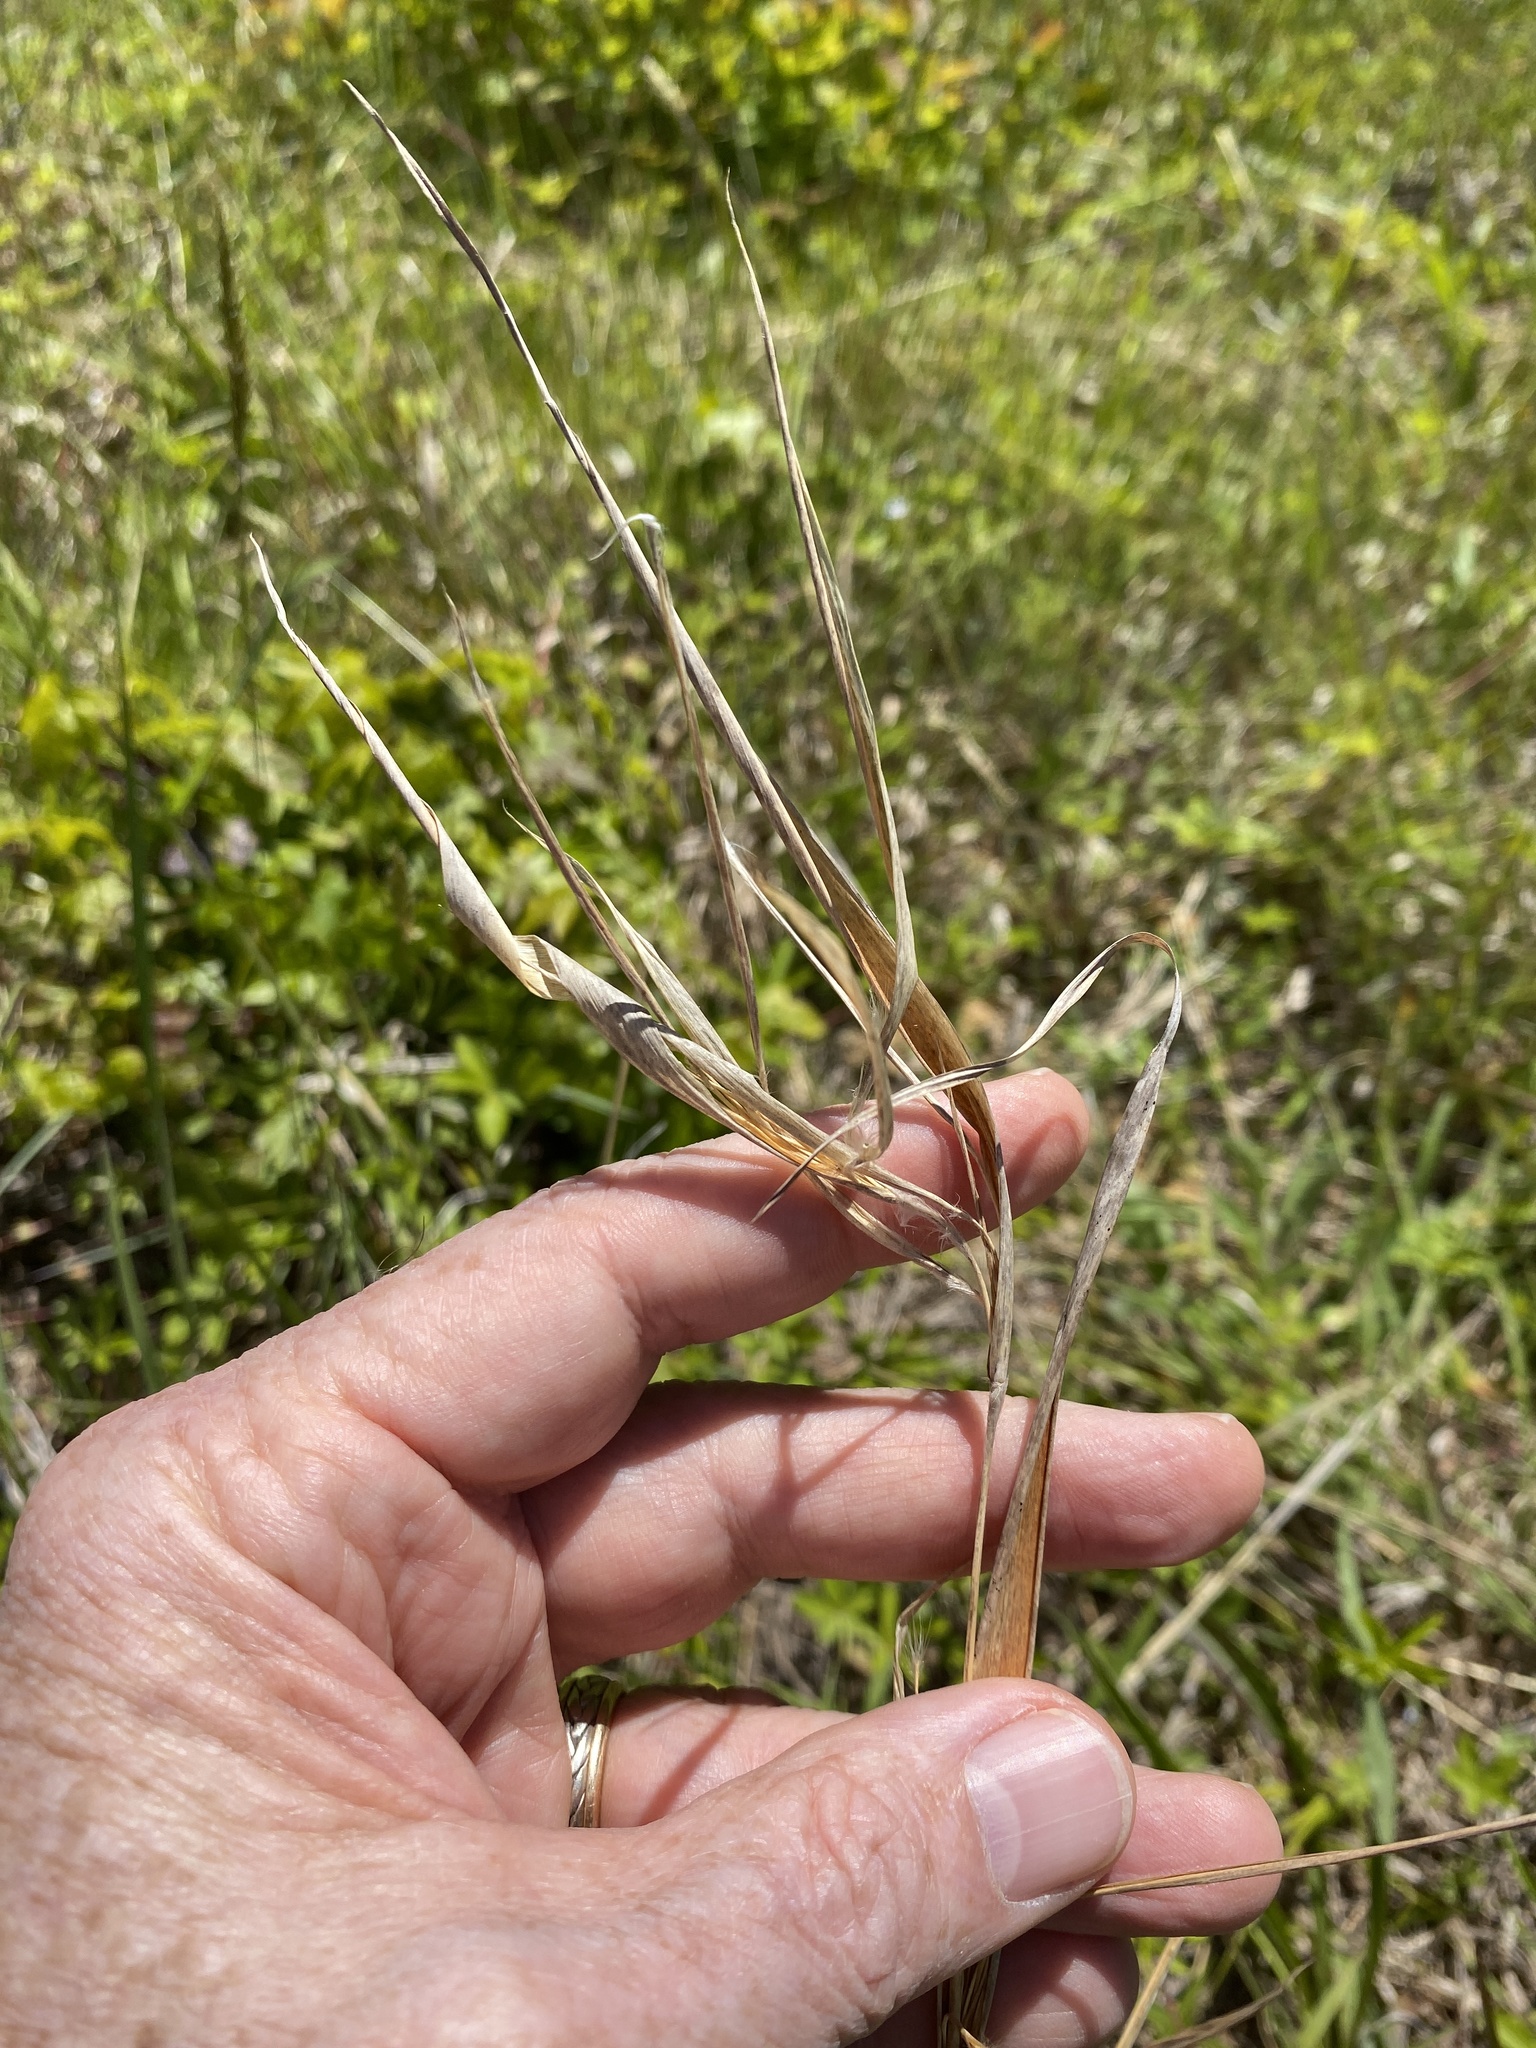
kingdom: Plantae
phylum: Tracheophyta
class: Liliopsida
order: Poales
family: Poaceae
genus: Andropogon
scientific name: Andropogon gyrans
